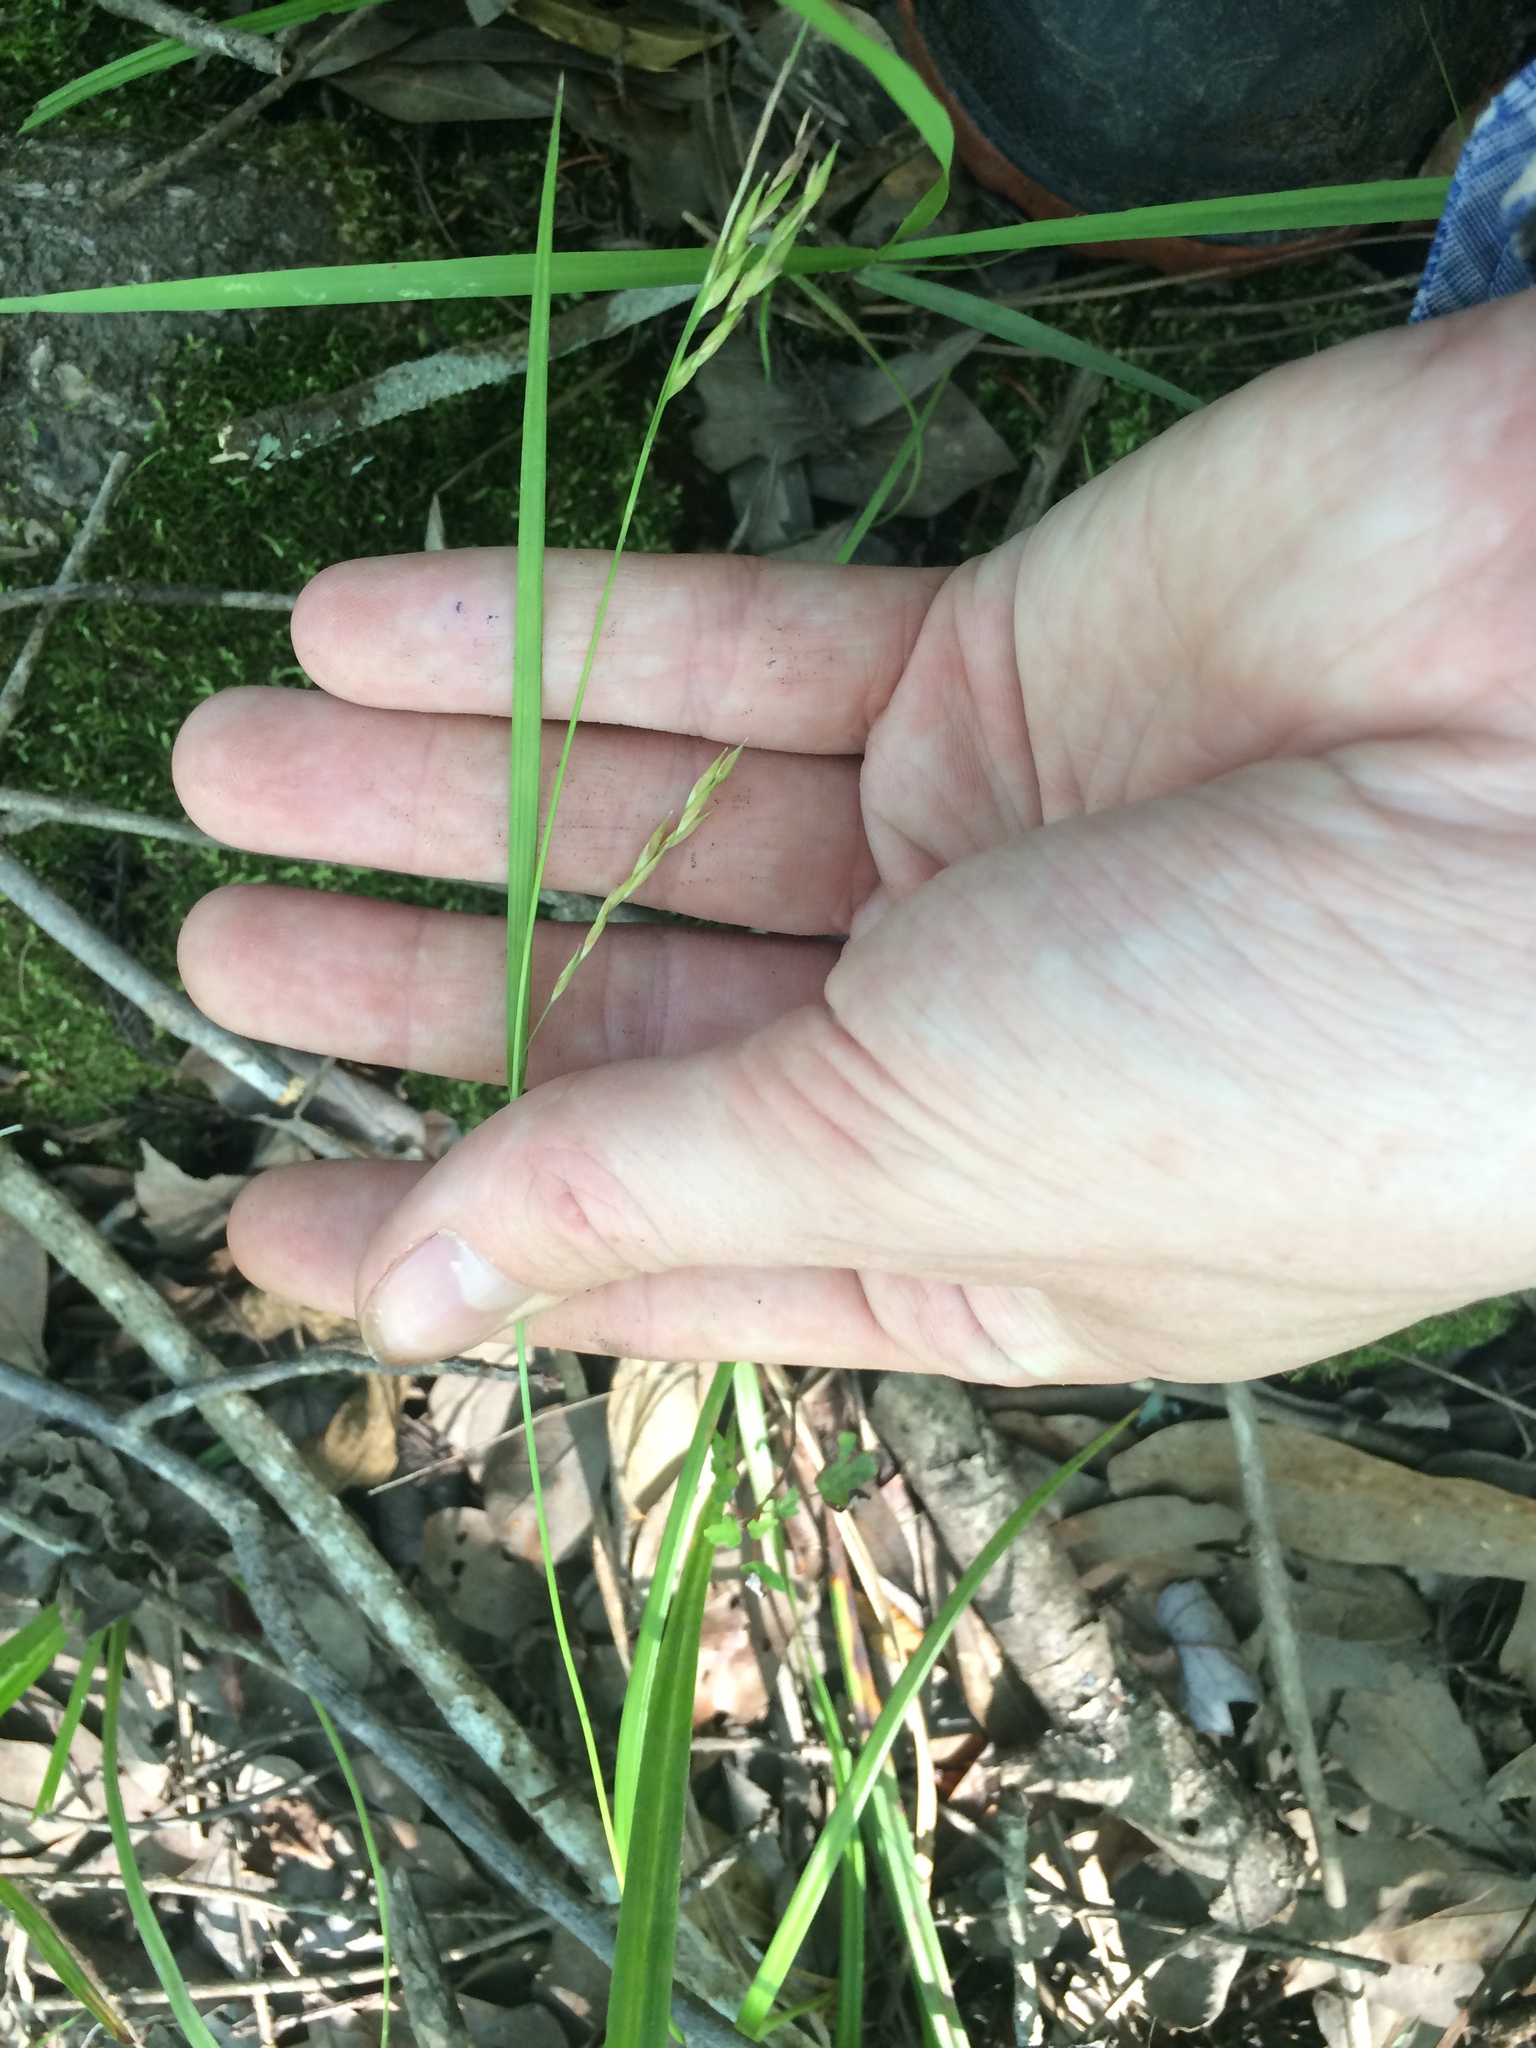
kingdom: Plantae
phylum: Tracheophyta
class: Liliopsida
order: Poales
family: Cyperaceae
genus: Carex
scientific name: Carex debilis
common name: White-edge sedge
